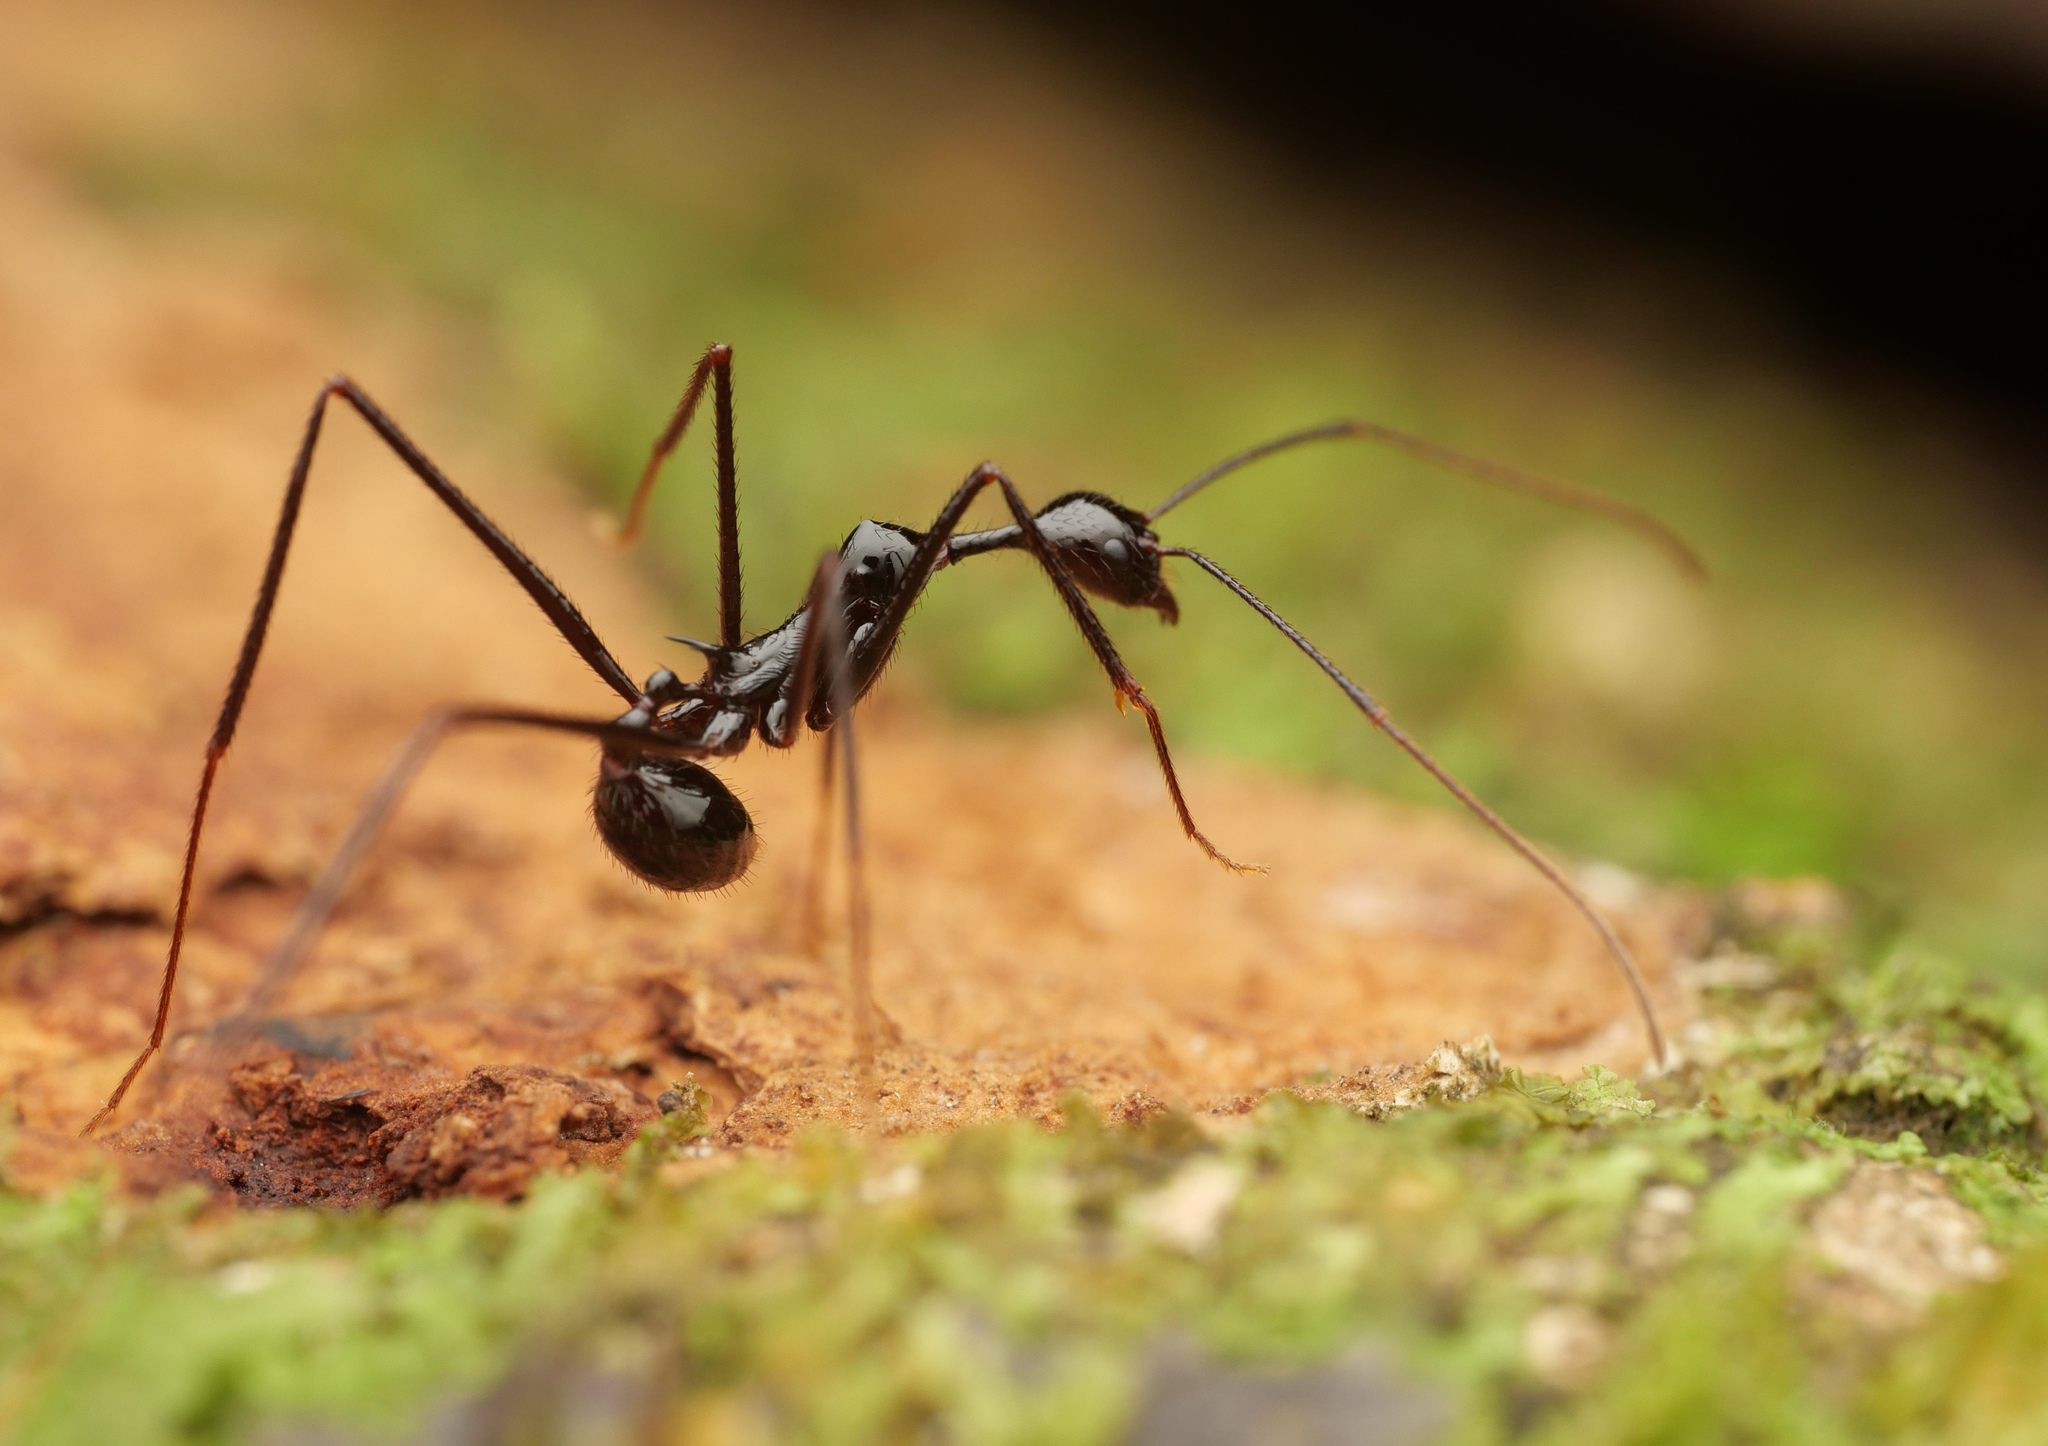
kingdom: Animalia
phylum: Arthropoda
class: Insecta
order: Hymenoptera
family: Formicidae
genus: Aphaenogaster
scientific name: Aphaenogaster dromedaria
